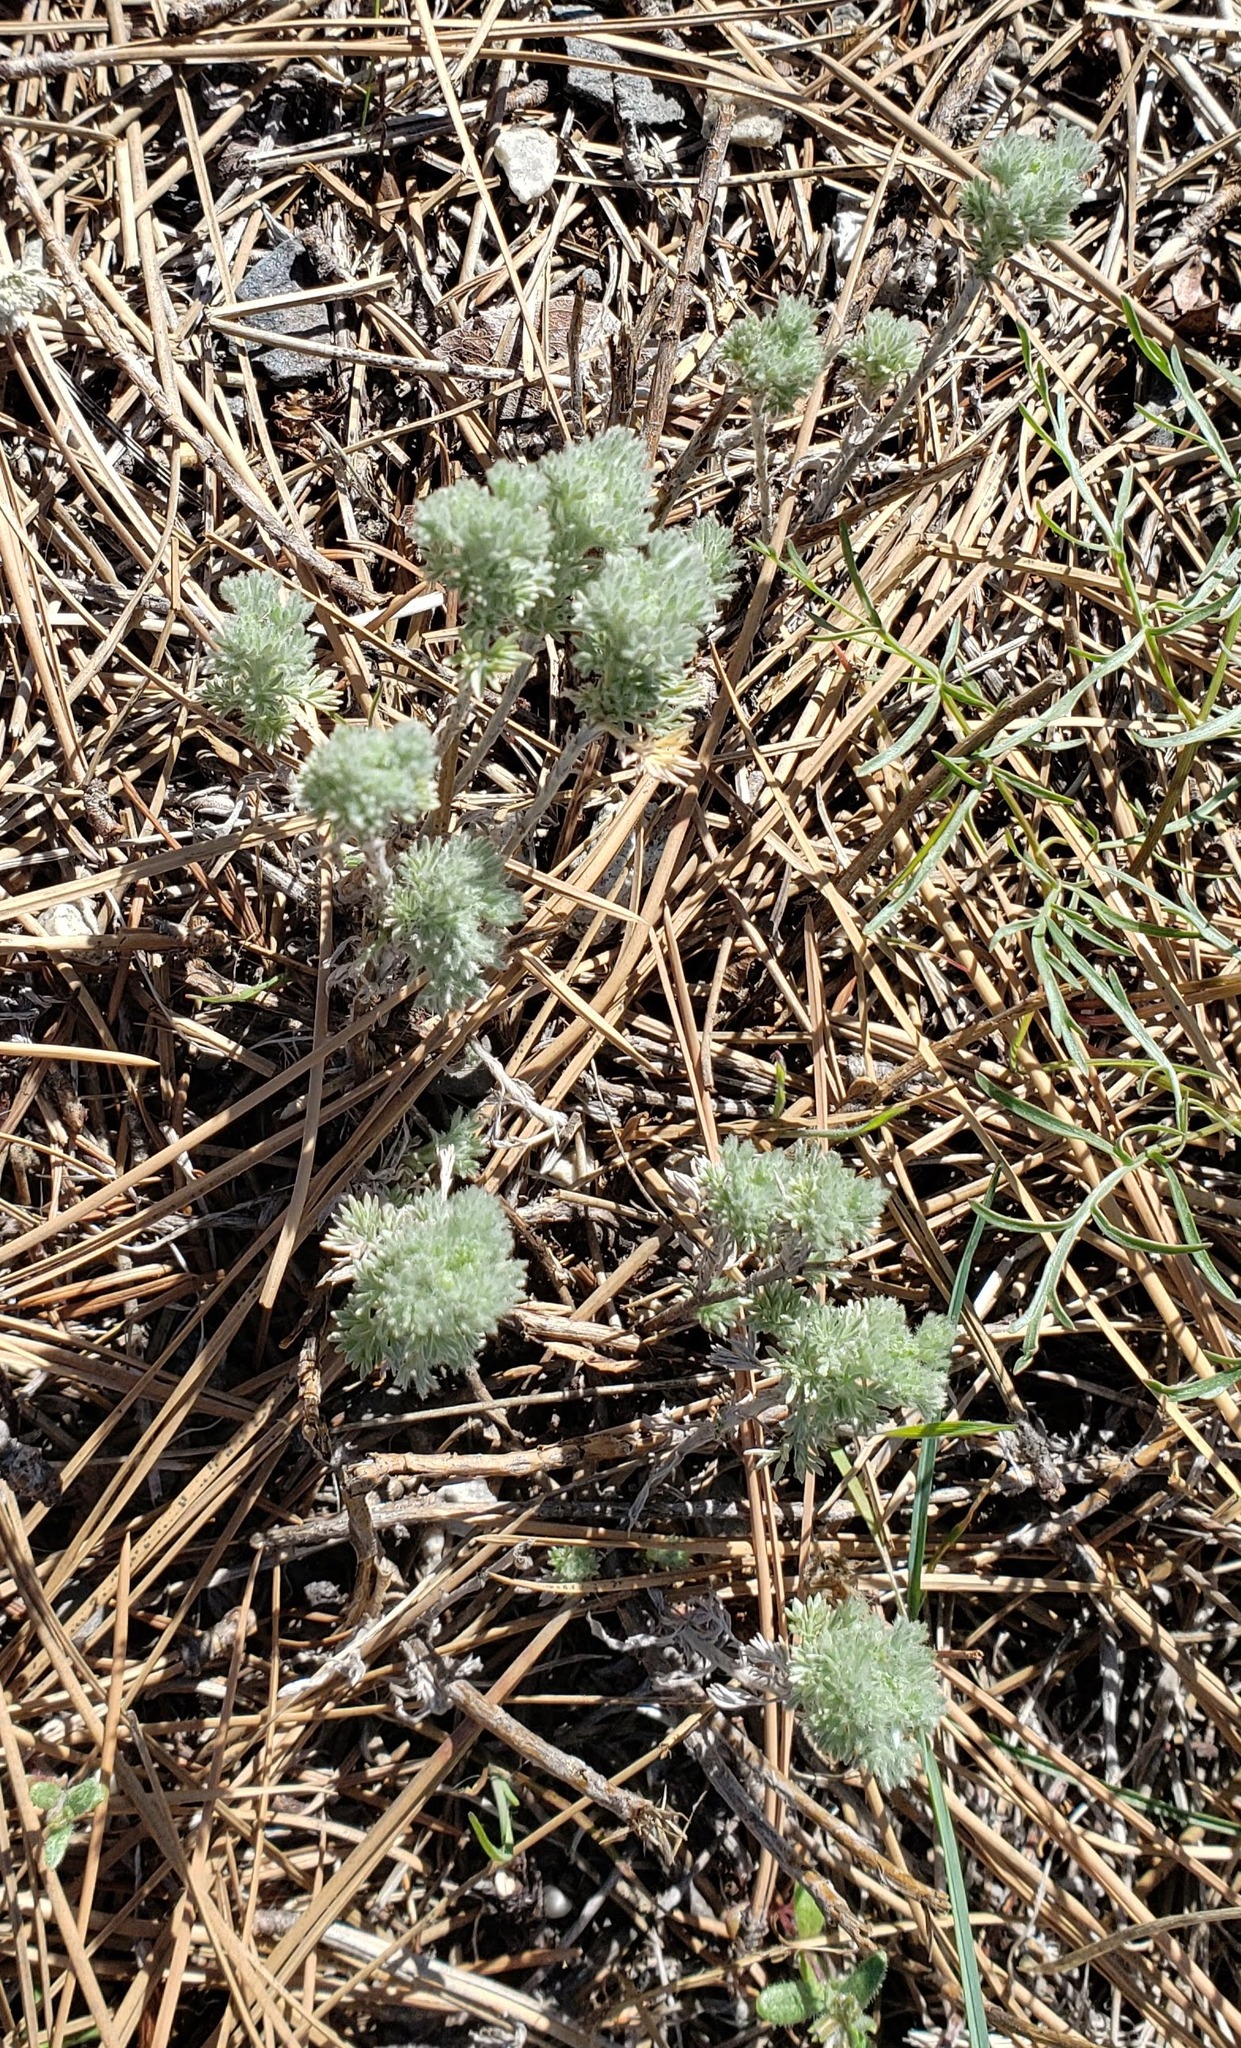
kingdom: Plantae
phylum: Tracheophyta
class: Magnoliopsida
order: Asterales
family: Asteraceae
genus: Artemisia
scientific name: Artemisia frigida
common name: Prairie sagewort
